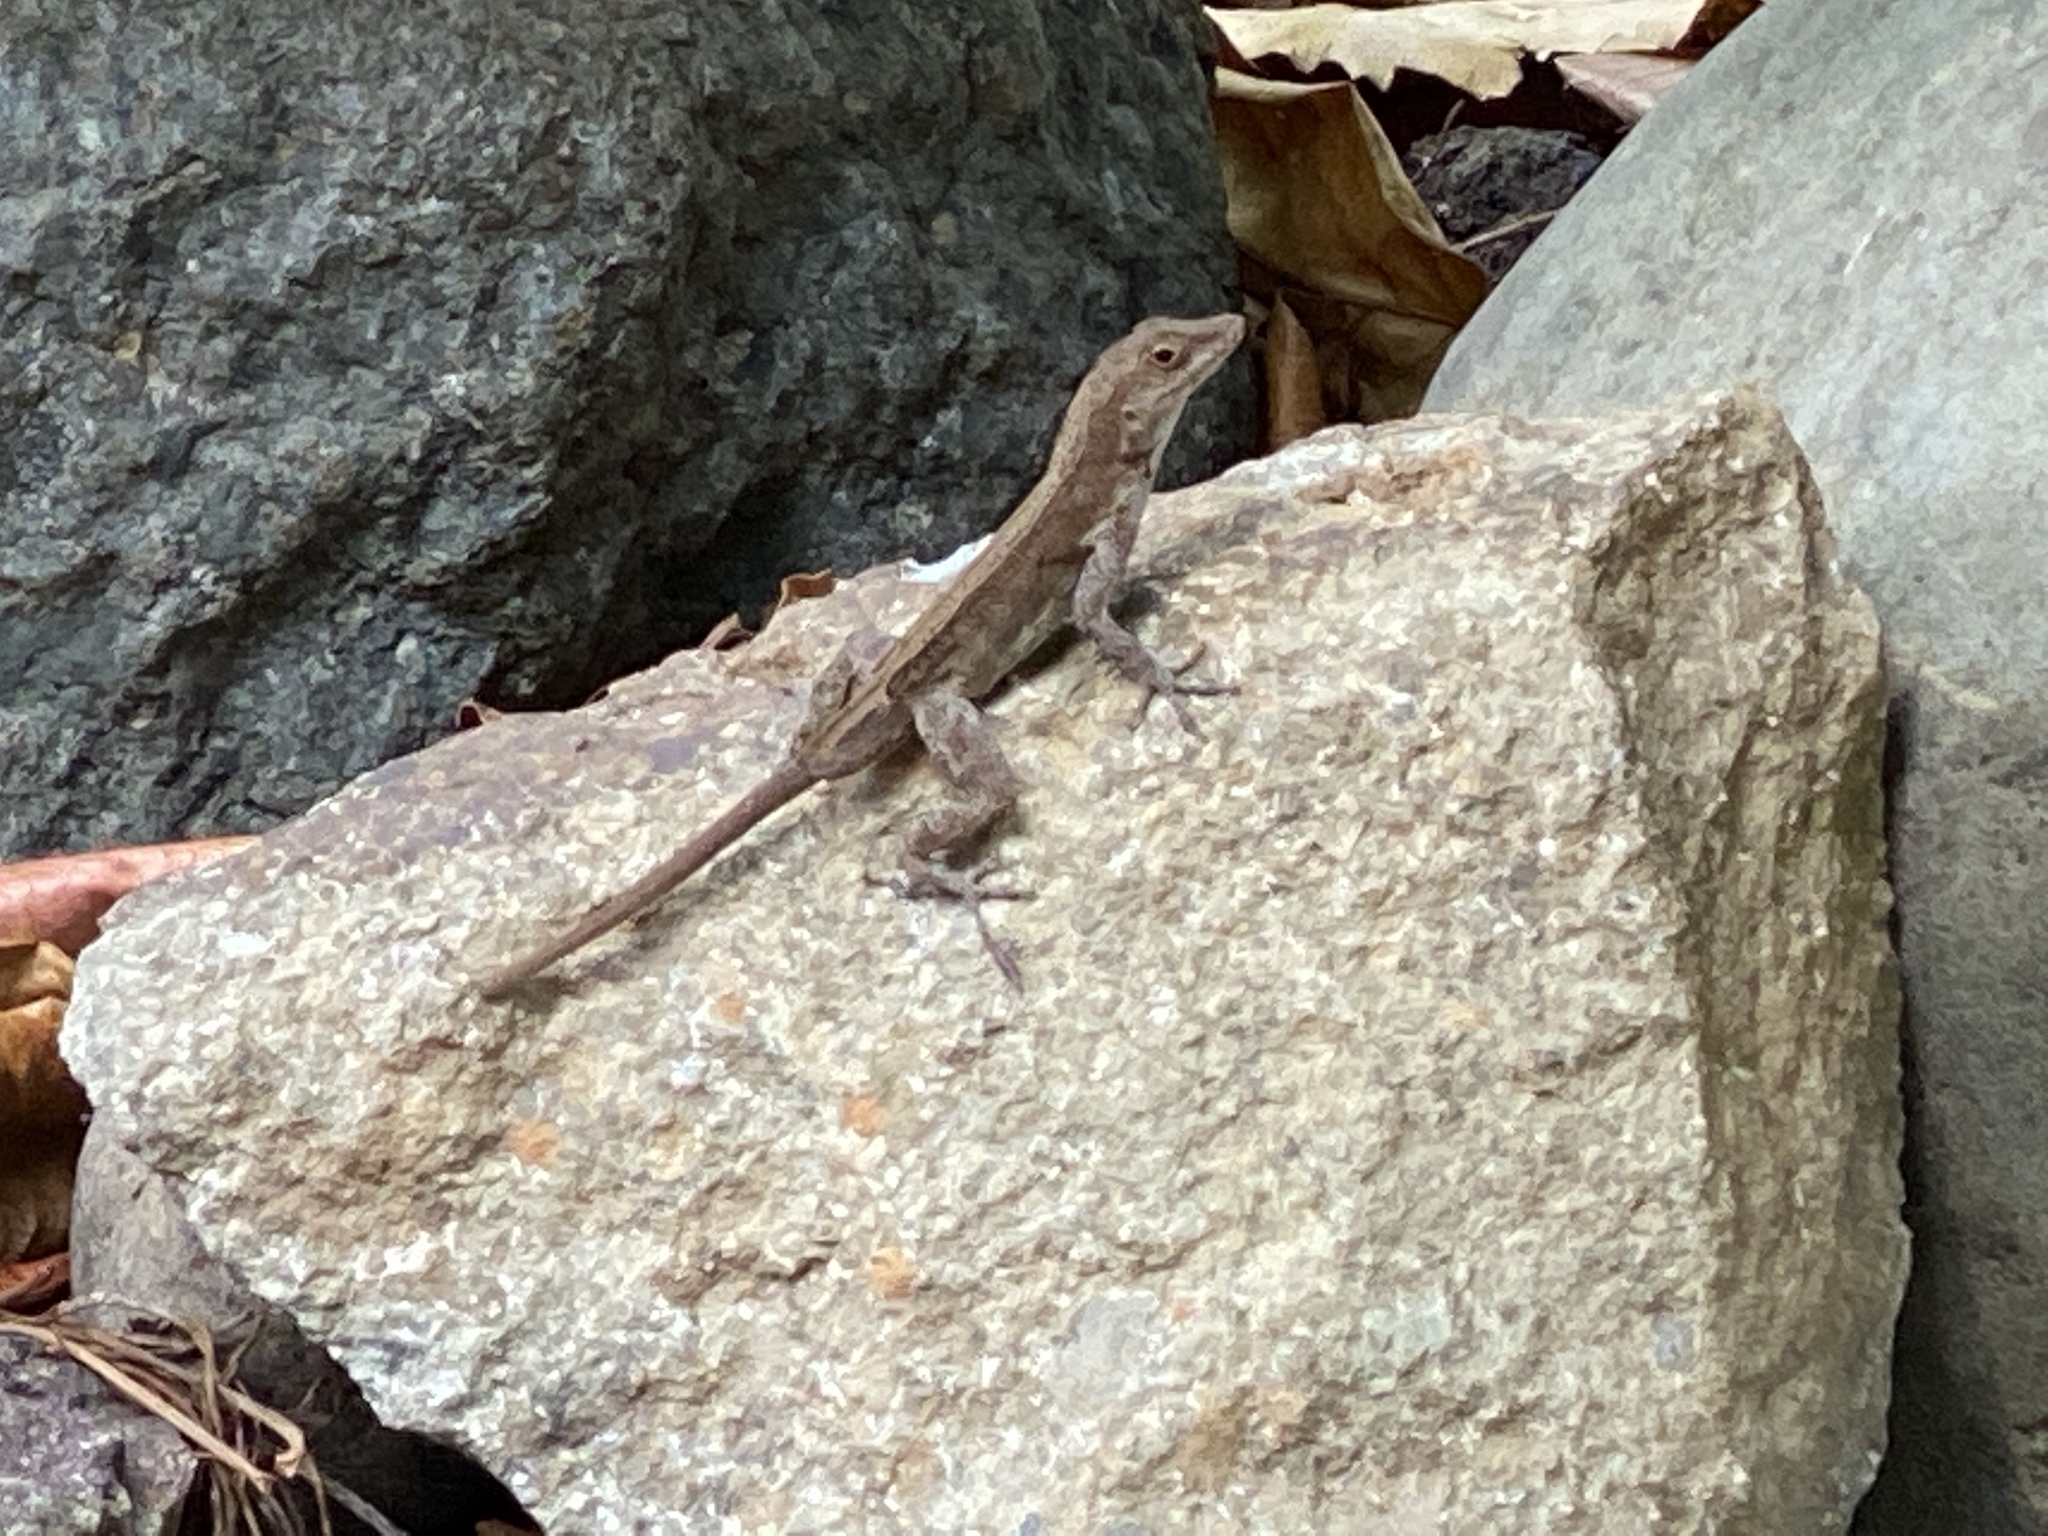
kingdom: Animalia
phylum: Chordata
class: Squamata
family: Dactyloidae
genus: Anolis
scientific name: Anolis cristatellus
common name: Crested anole
